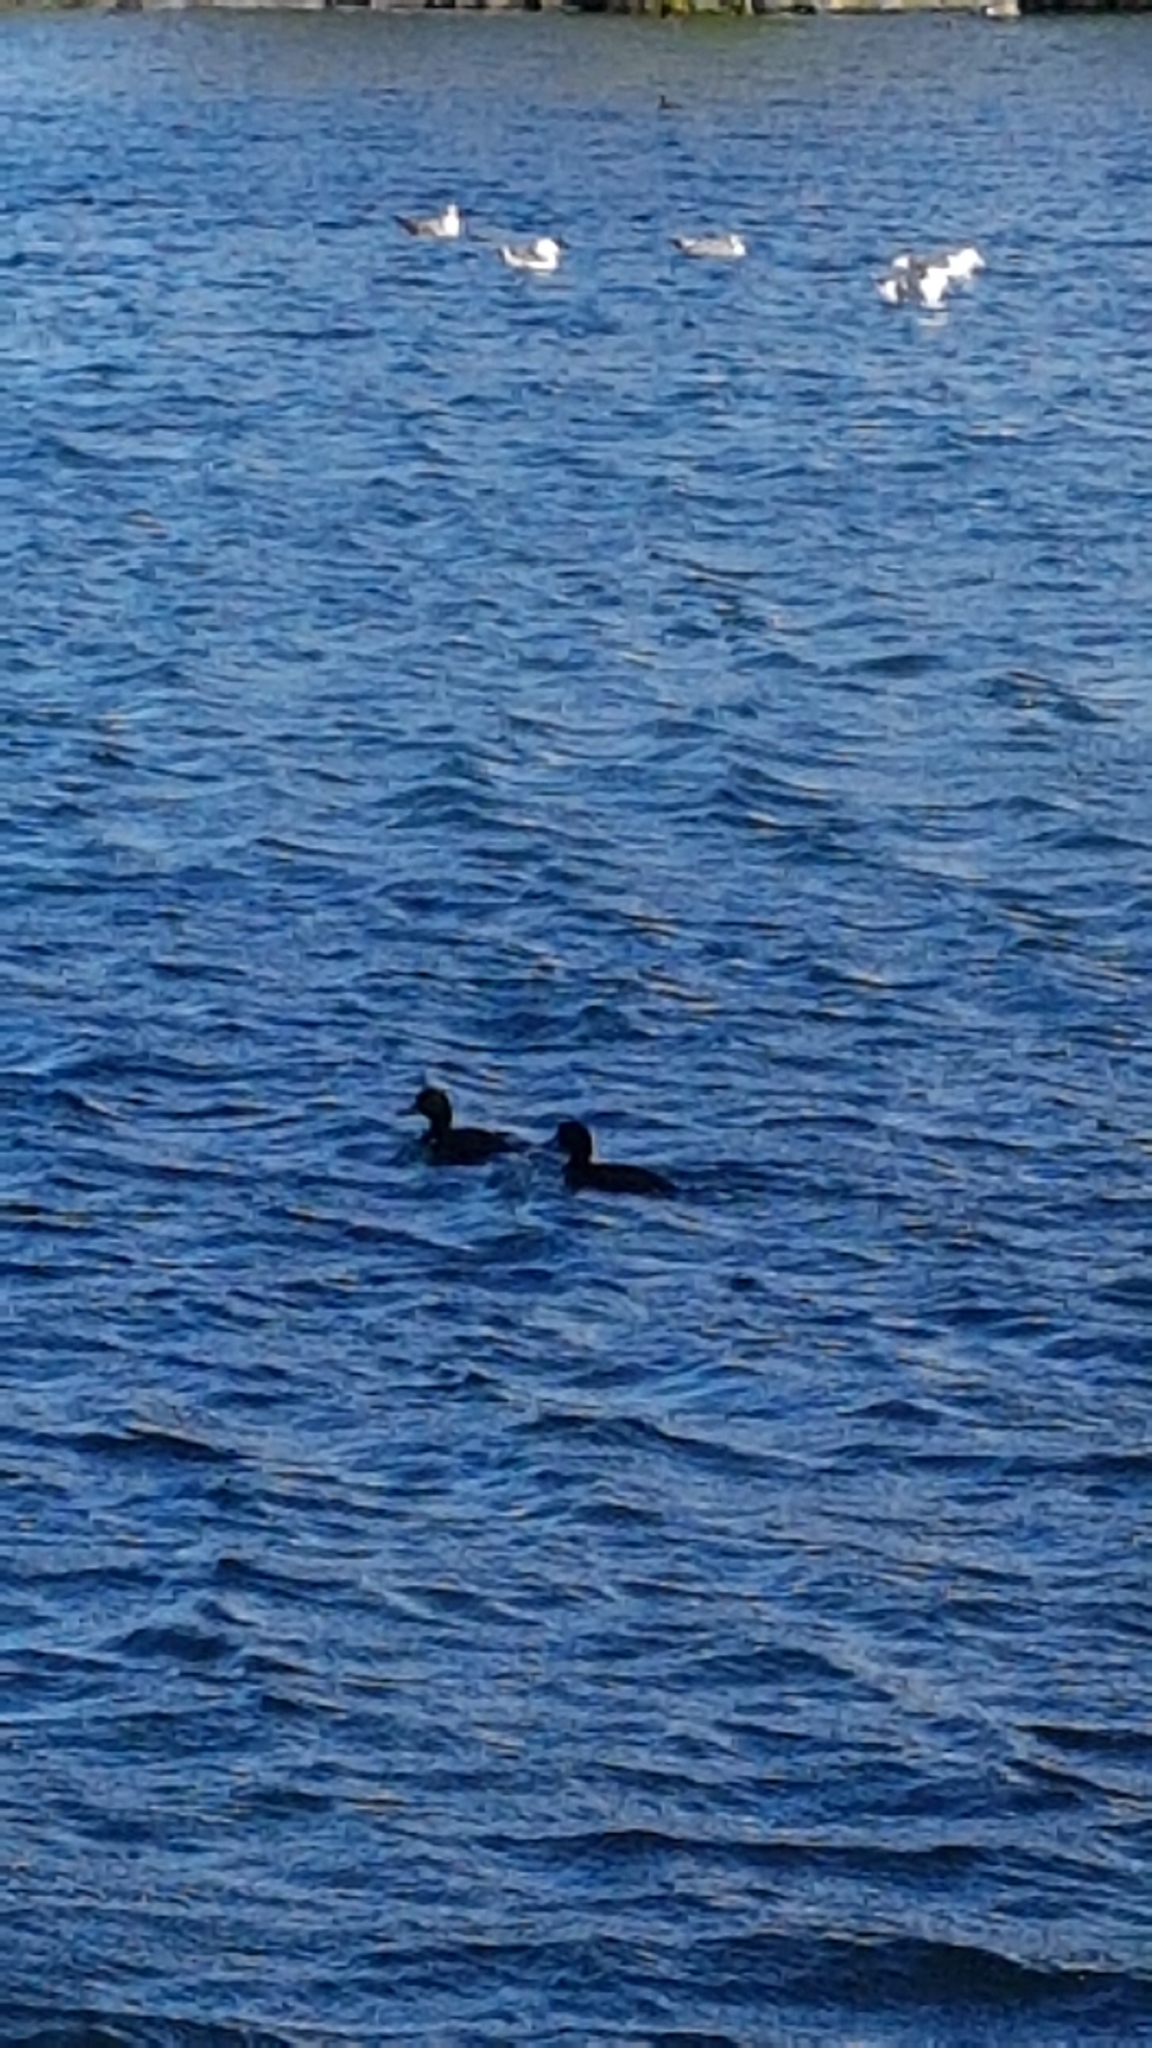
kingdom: Animalia
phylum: Chordata
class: Aves
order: Anseriformes
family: Anatidae
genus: Aythya
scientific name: Aythya novaeseelandiae
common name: New zealand scaup
